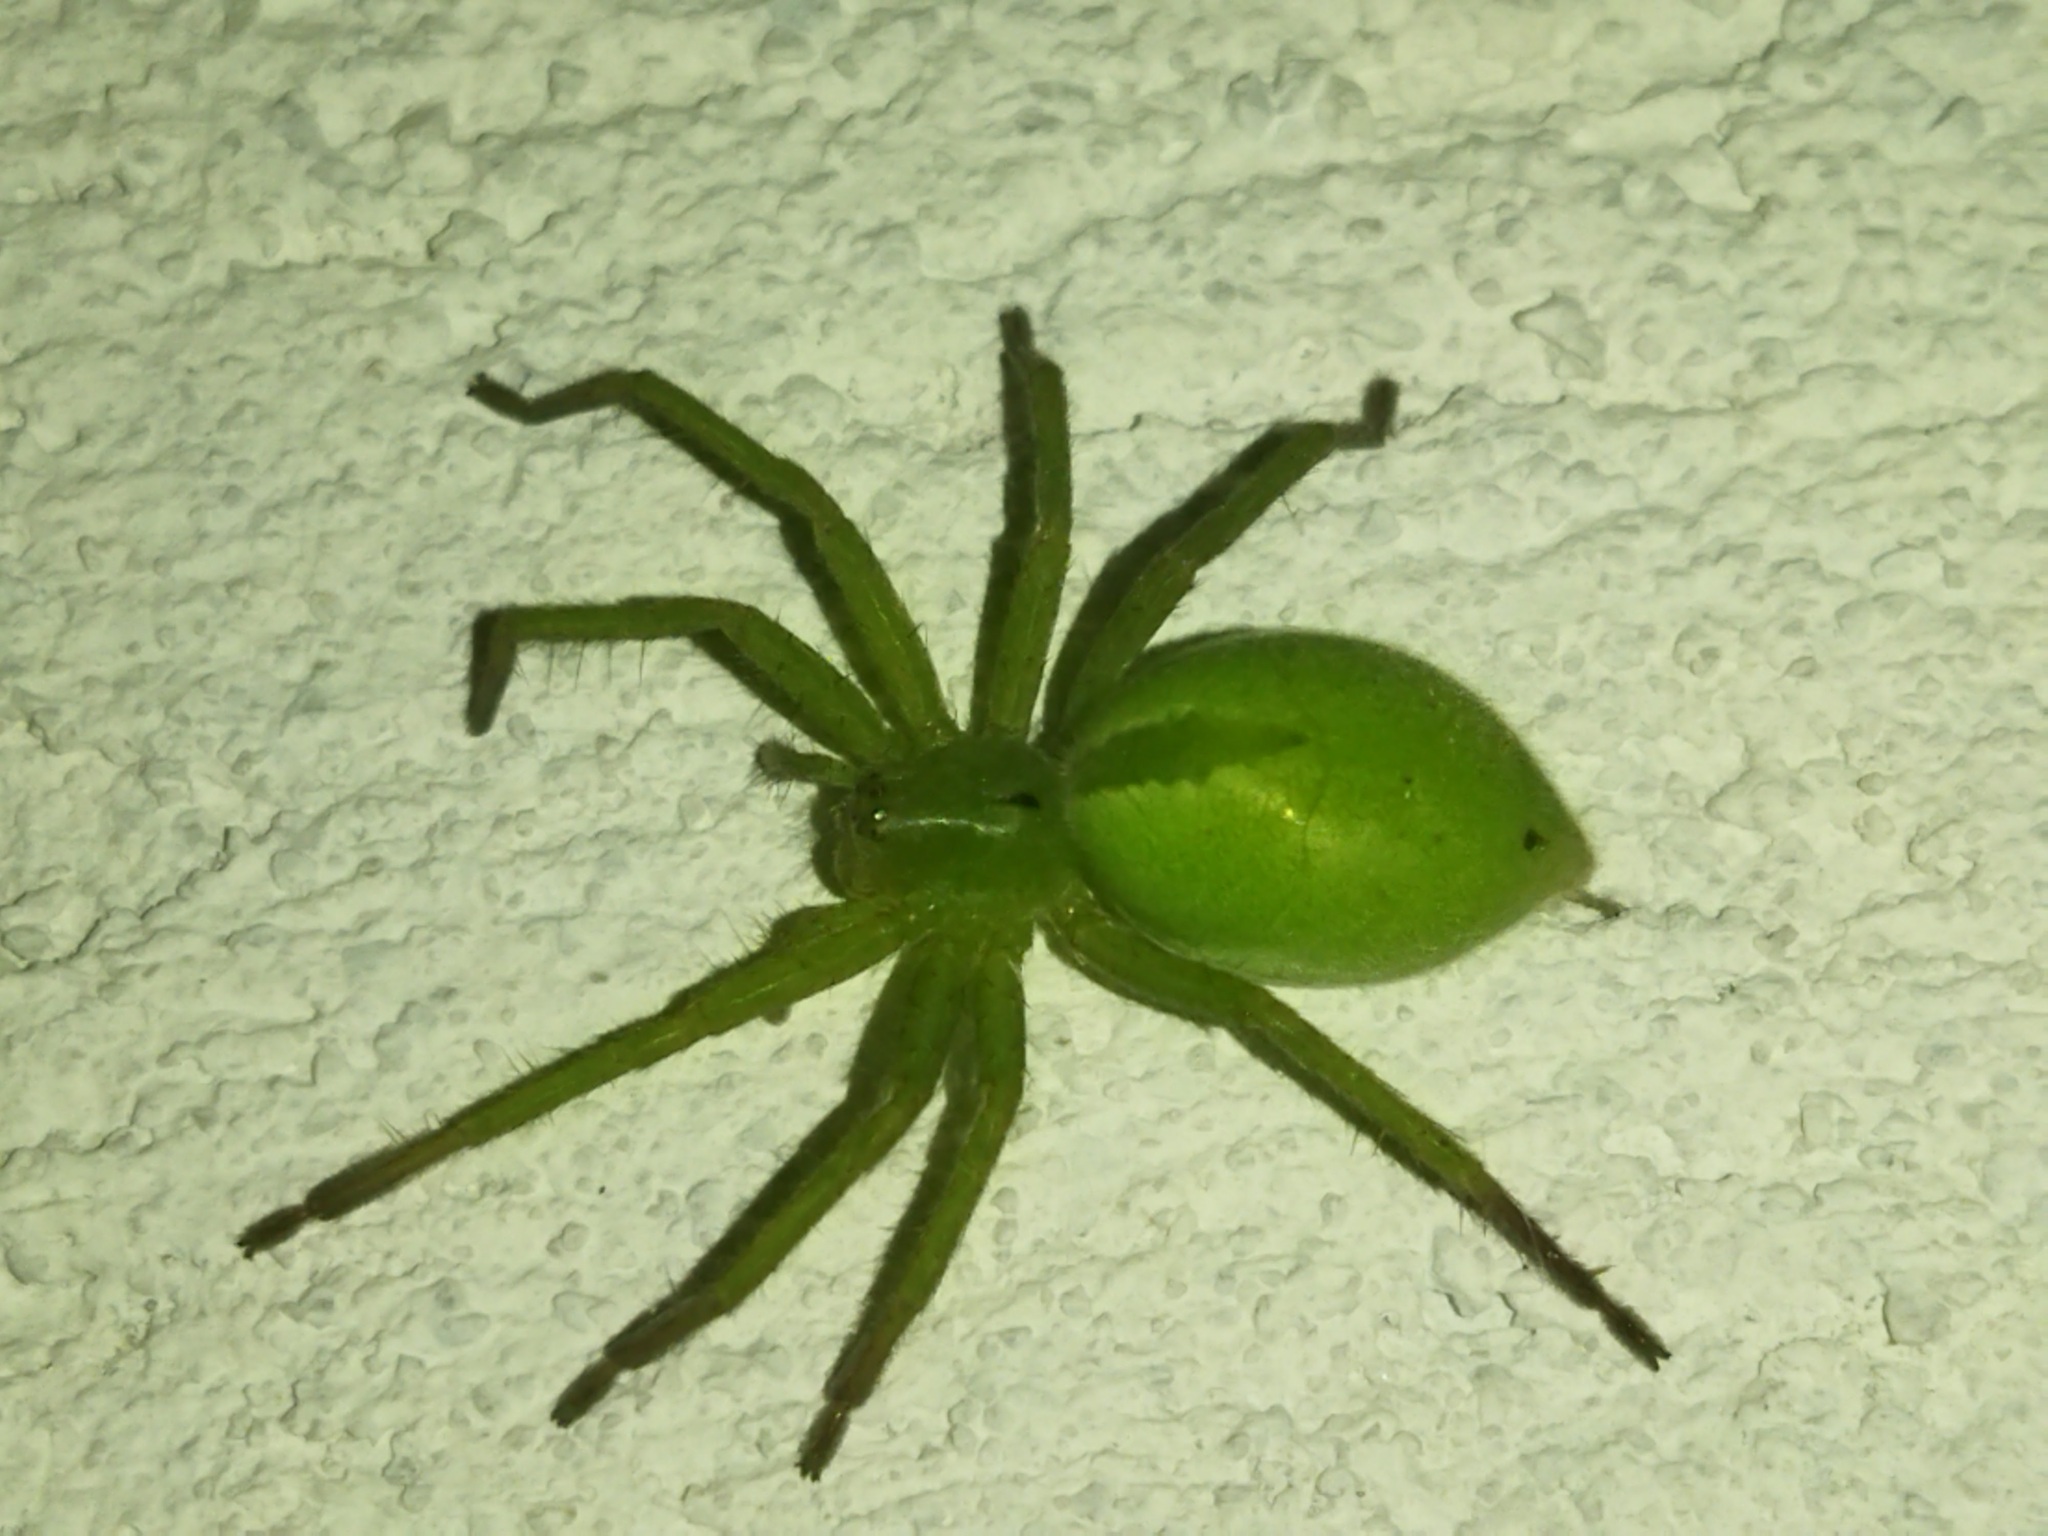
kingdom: Animalia
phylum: Arthropoda
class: Arachnida
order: Araneae
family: Sparassidae
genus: Micrommata
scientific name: Micrommata ligurina
